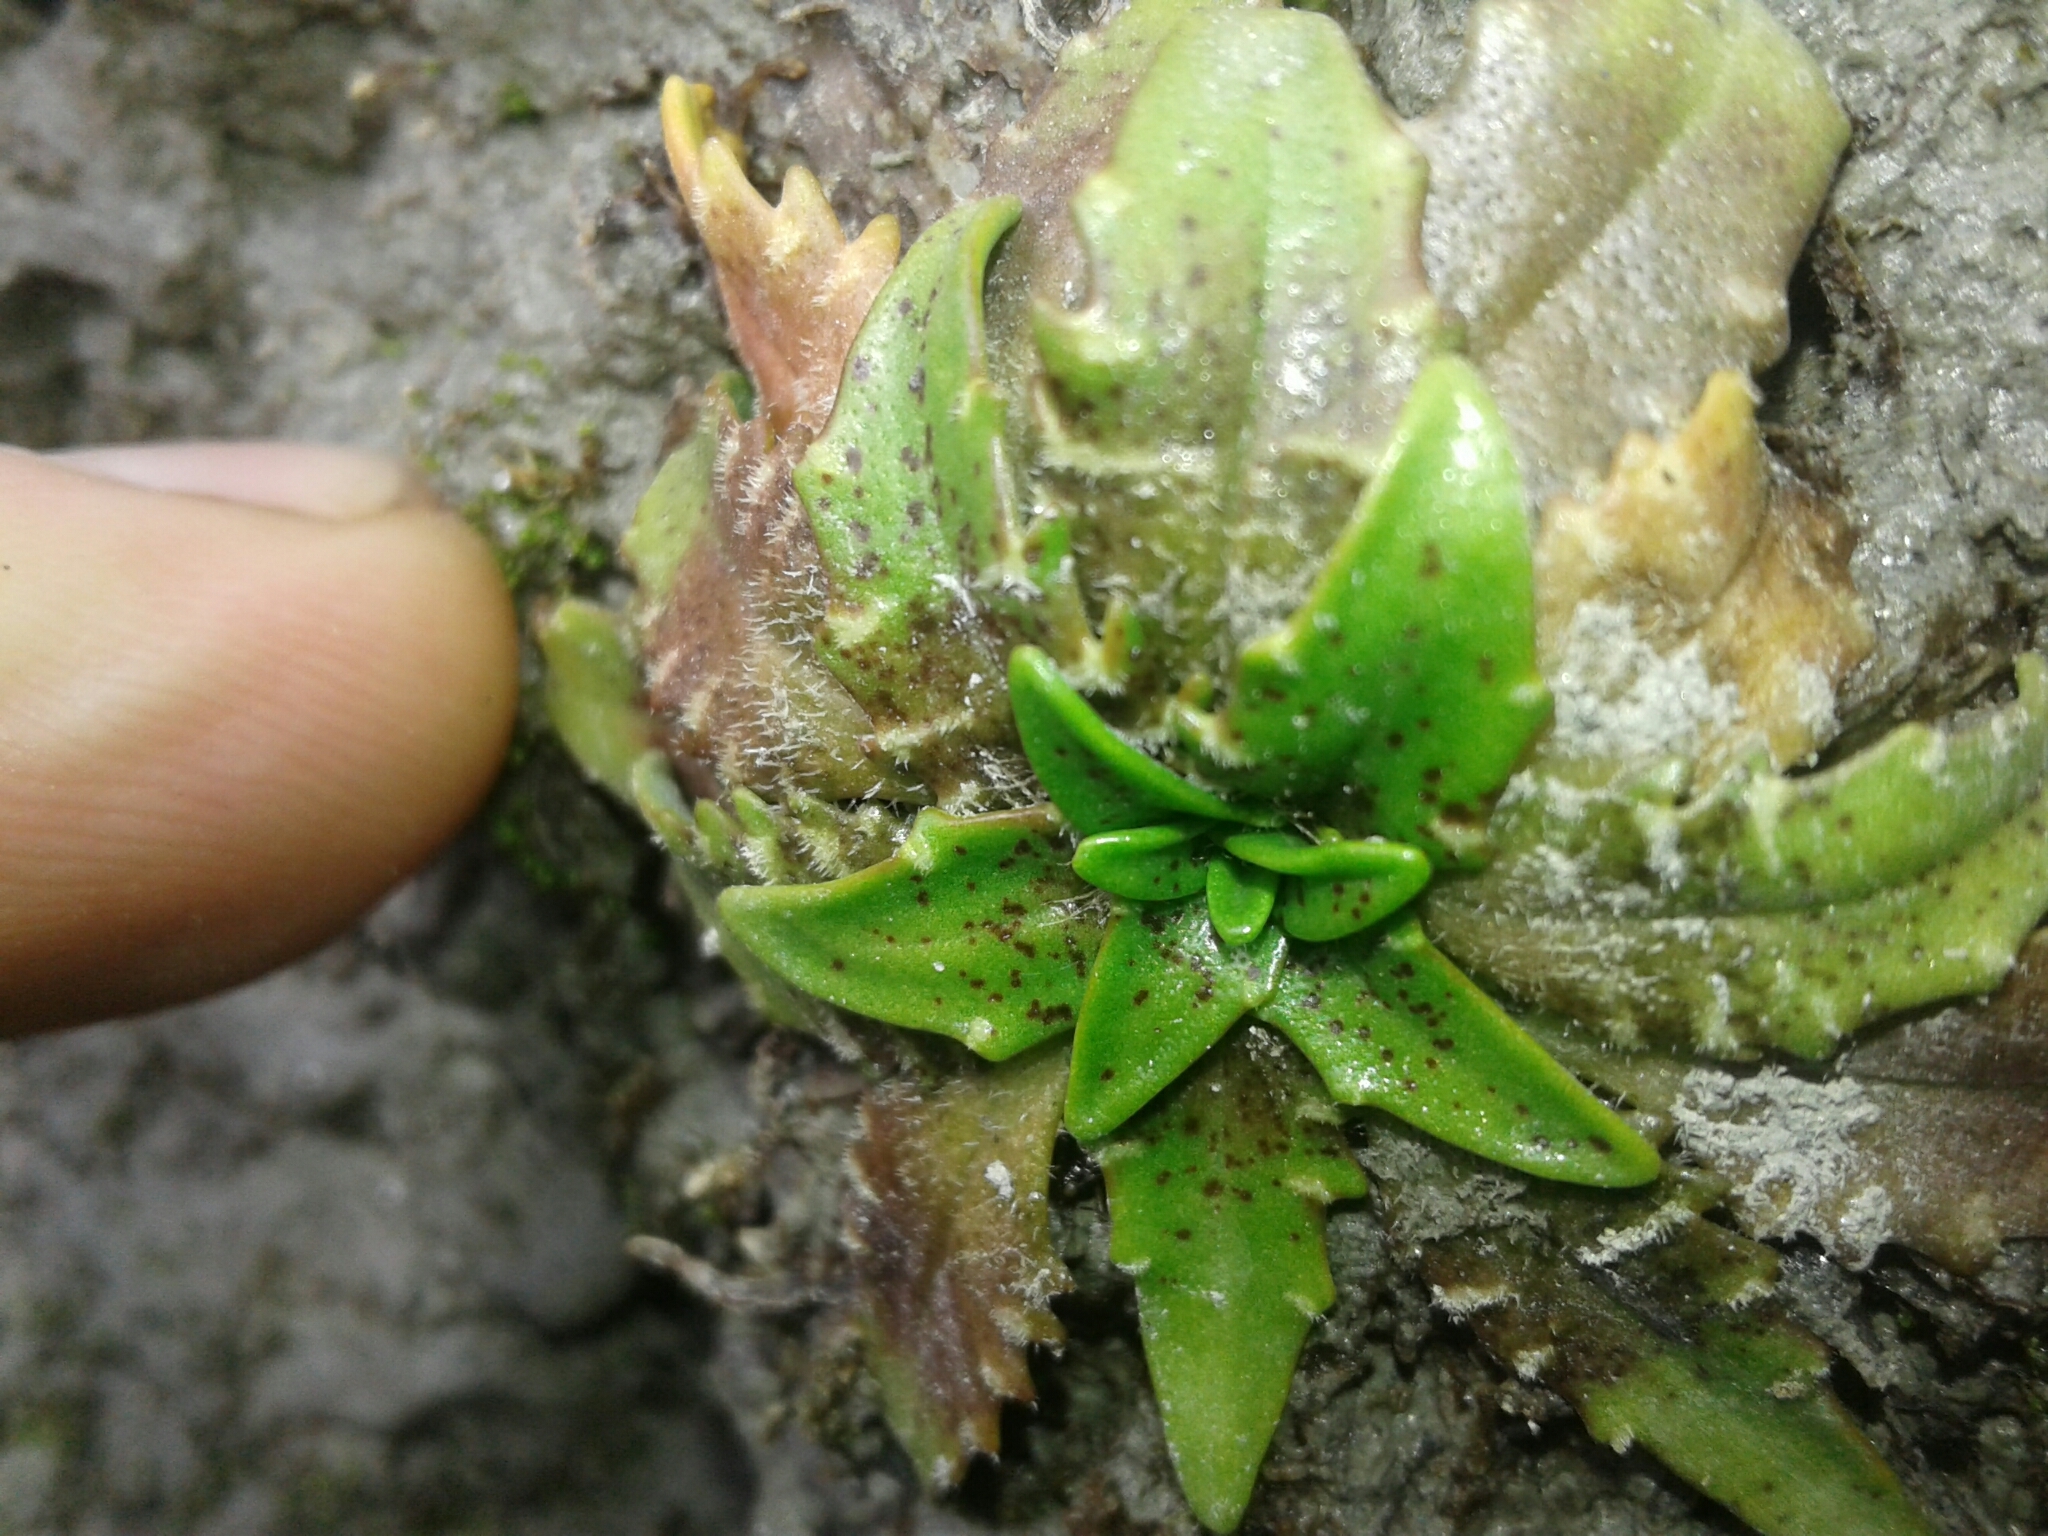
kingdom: Plantae
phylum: Tracheophyta
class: Magnoliopsida
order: Lamiales
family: Plantaginaceae
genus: Plantago
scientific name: Plantago triandra
